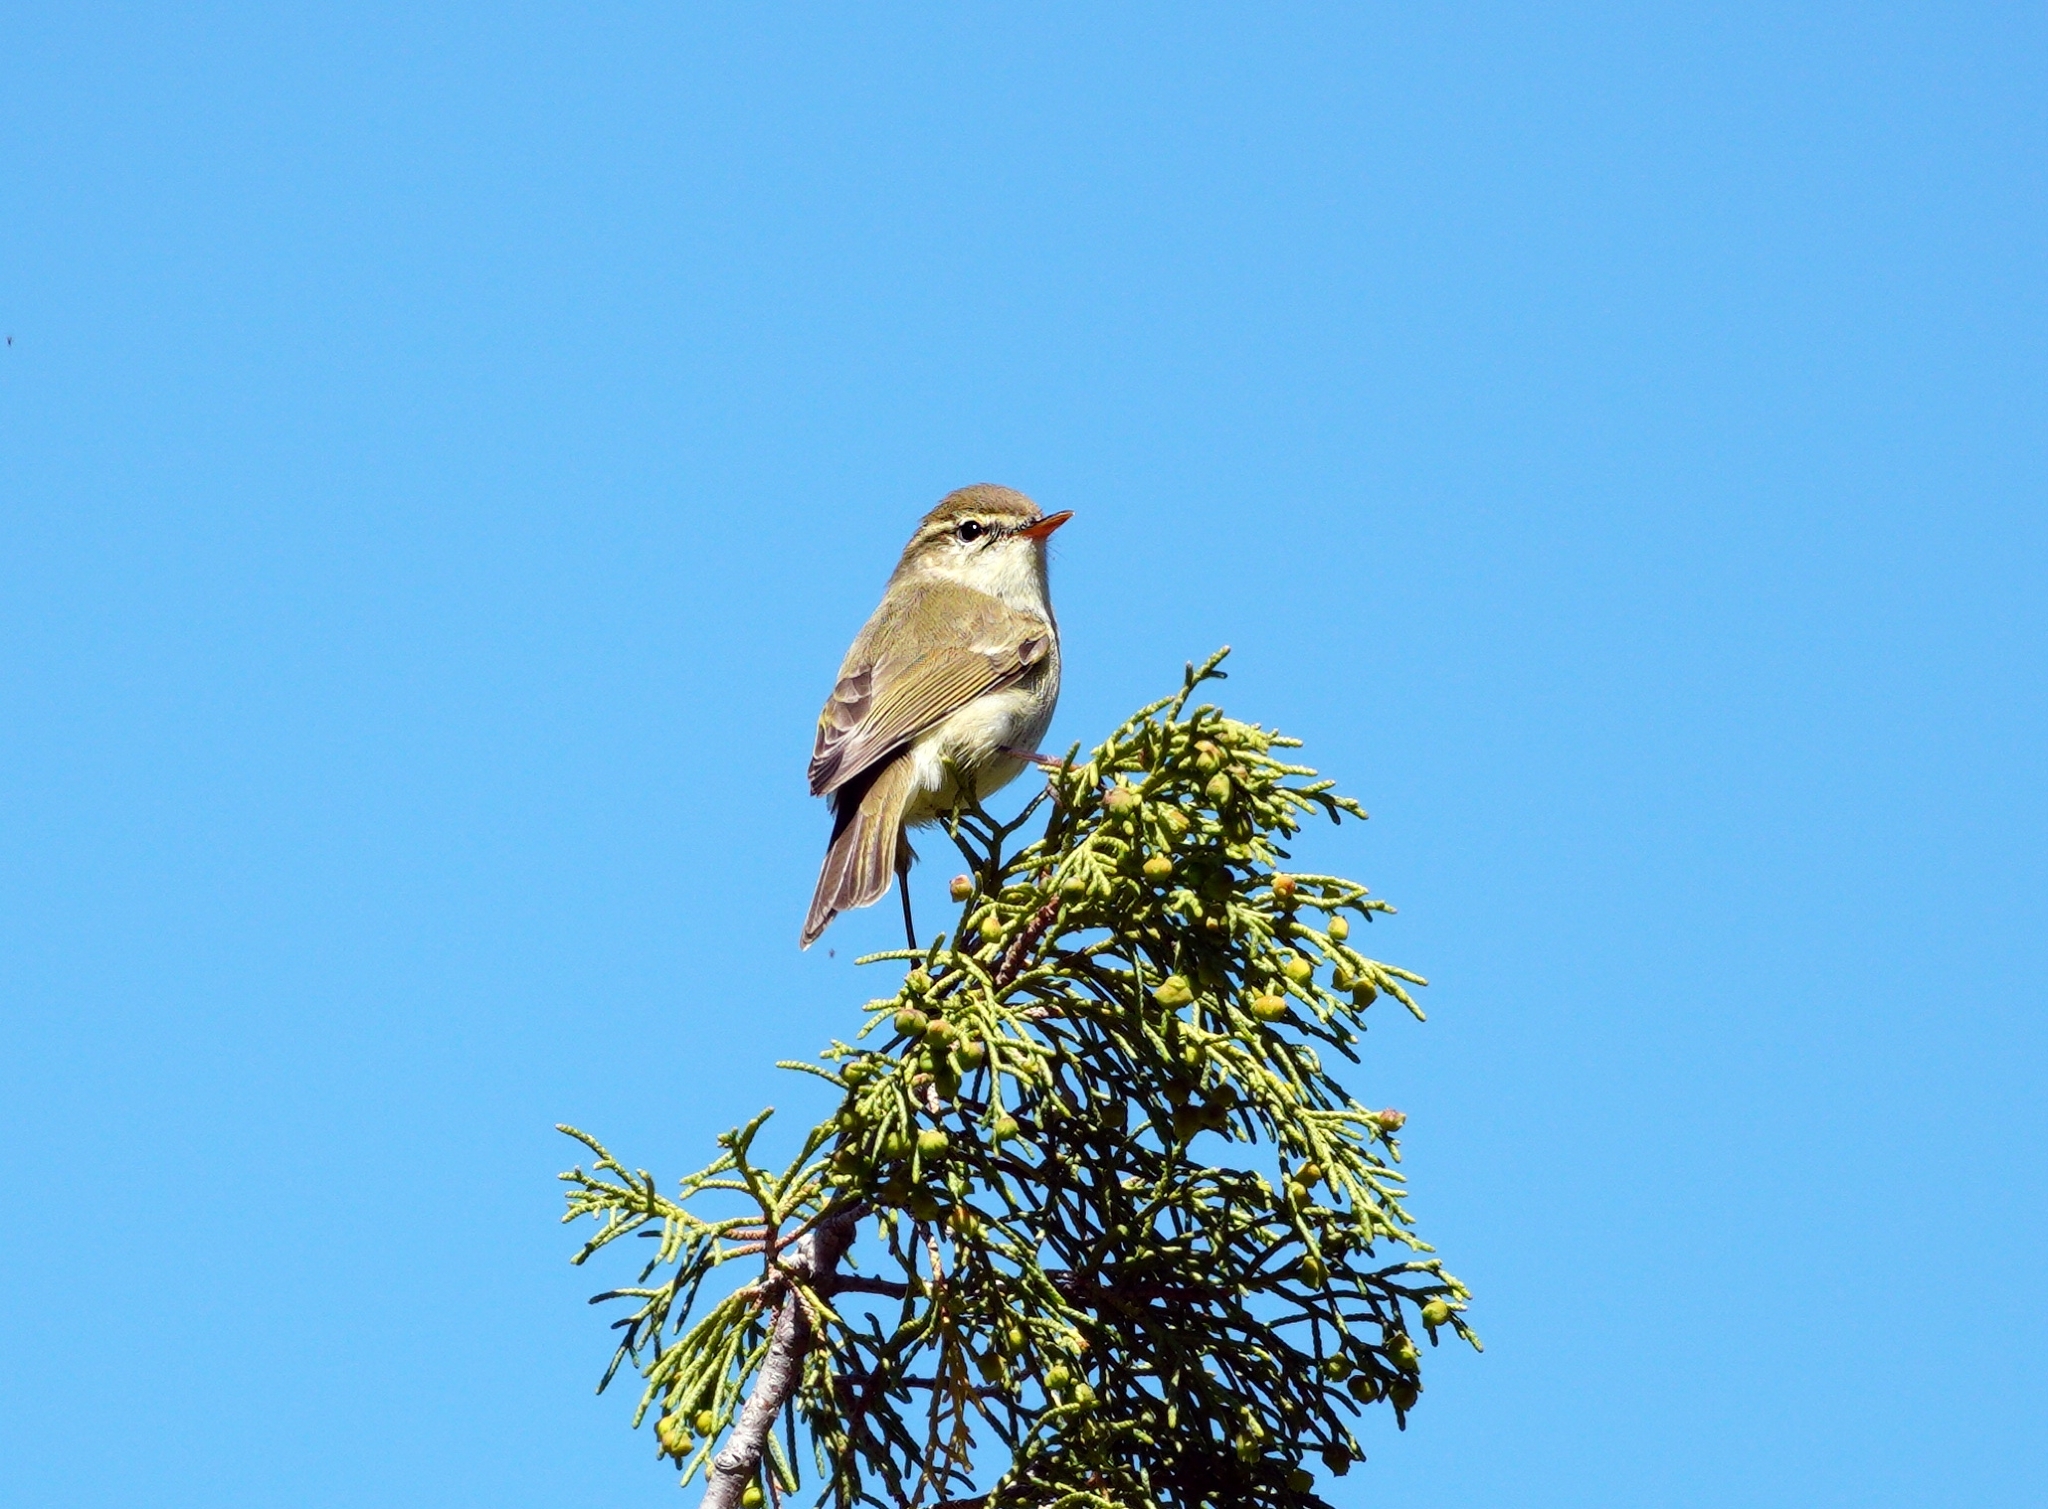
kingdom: Animalia
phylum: Chordata
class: Aves
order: Passeriformes
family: Phylloscopidae
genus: Phylloscopus
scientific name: Phylloscopus trochiloides
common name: Greenish warbler
